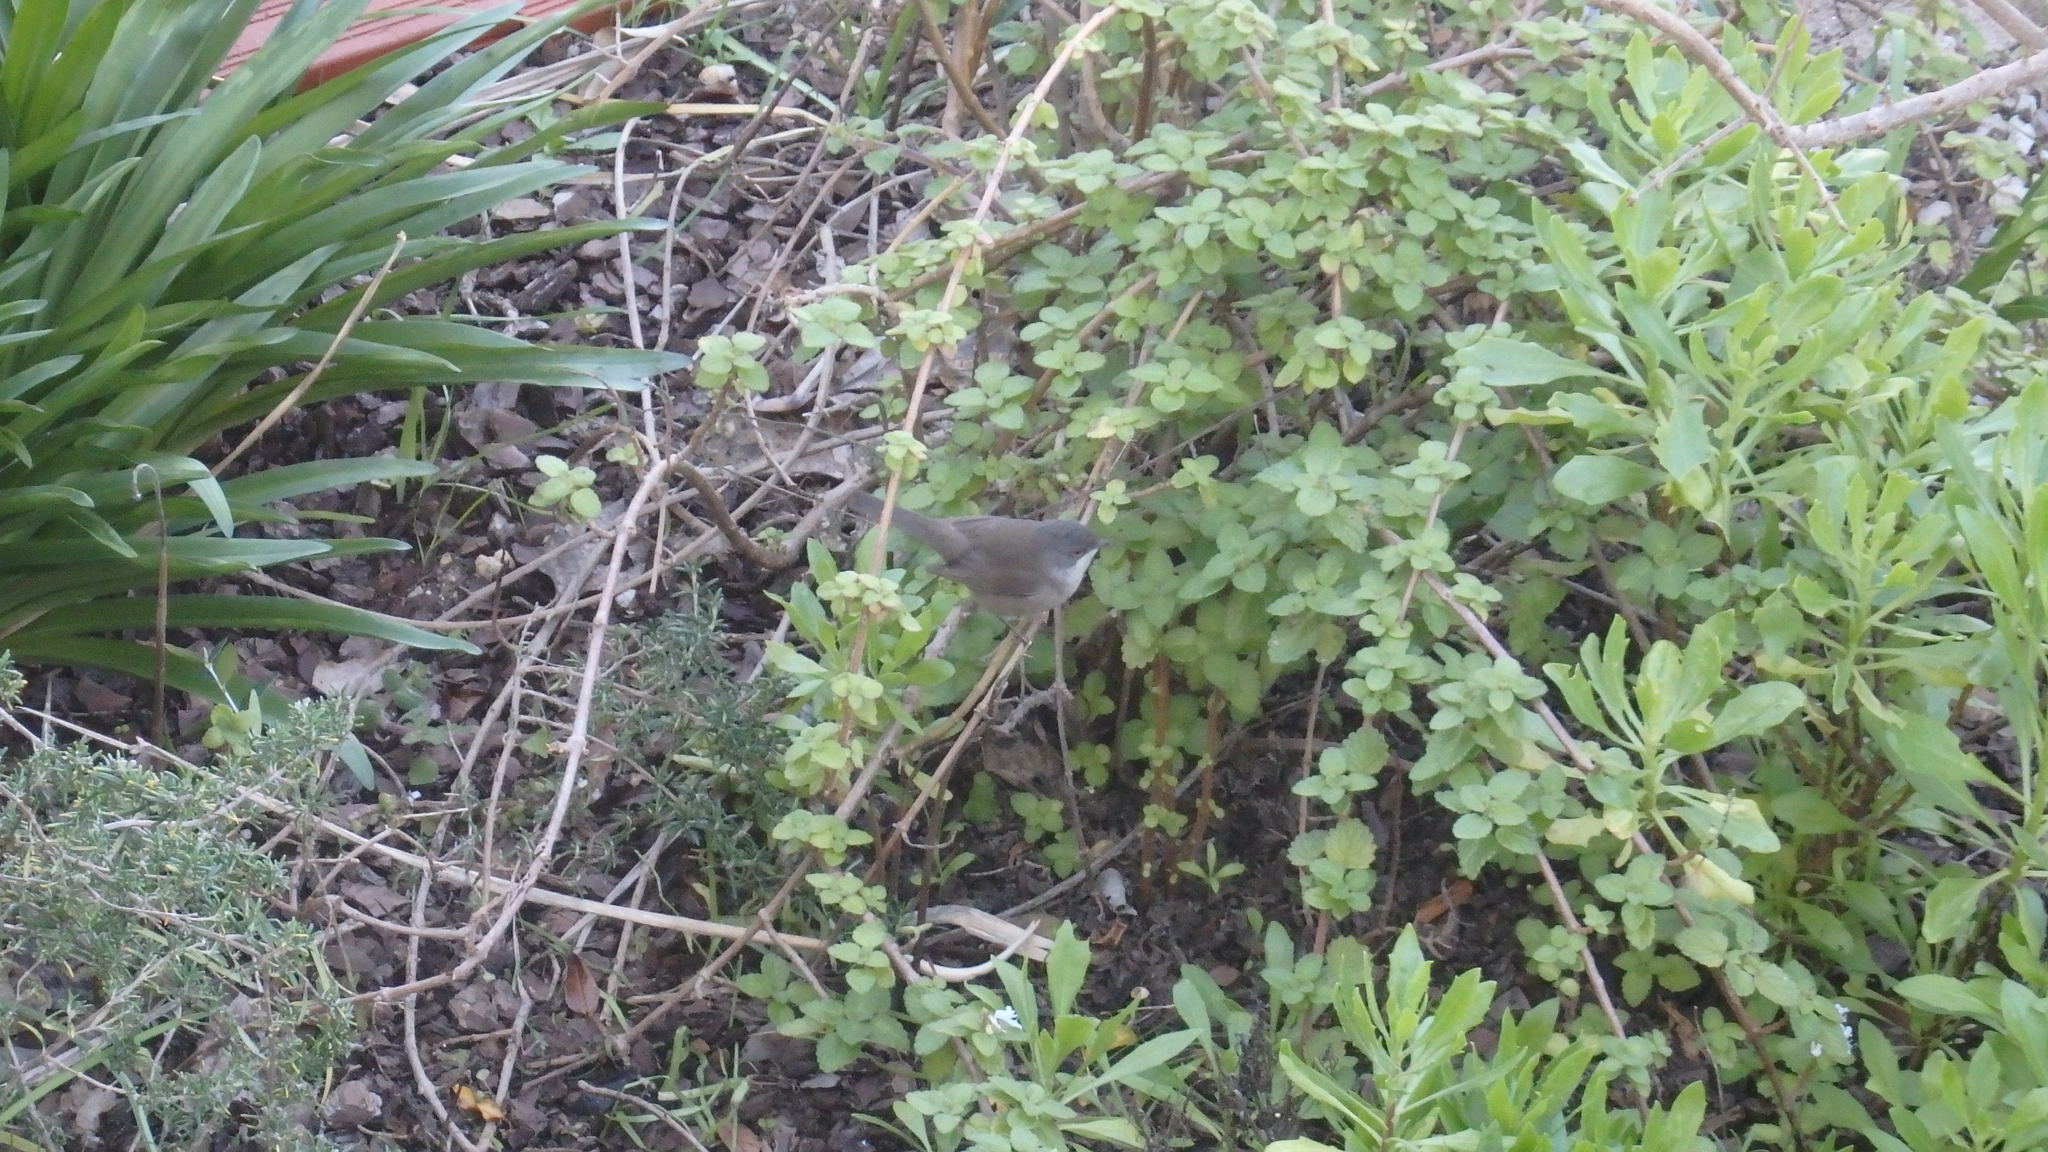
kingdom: Animalia
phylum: Chordata
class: Aves
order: Passeriformes
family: Sylviidae
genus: Curruca
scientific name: Curruca melanocephala
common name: Sardinian warbler
